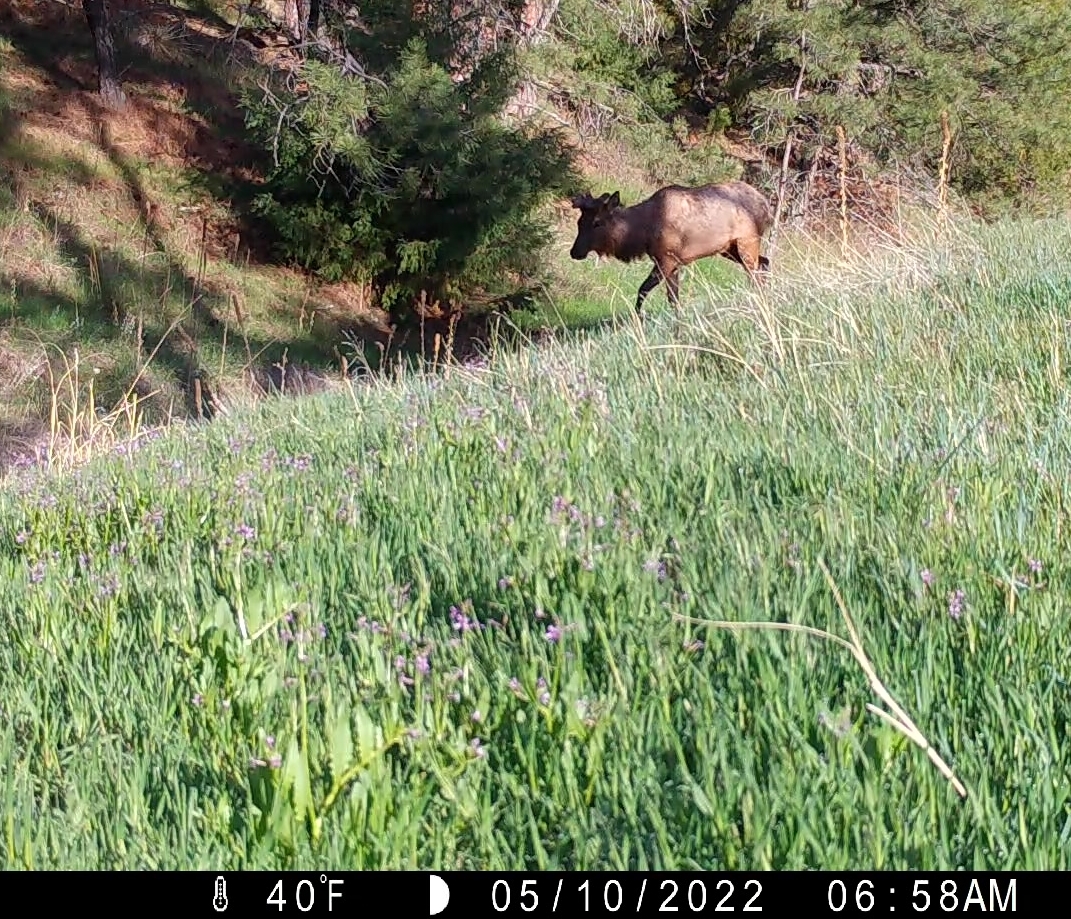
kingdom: Animalia
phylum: Chordata
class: Mammalia
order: Artiodactyla
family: Cervidae
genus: Cervus
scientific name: Cervus elaphus
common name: Red deer
